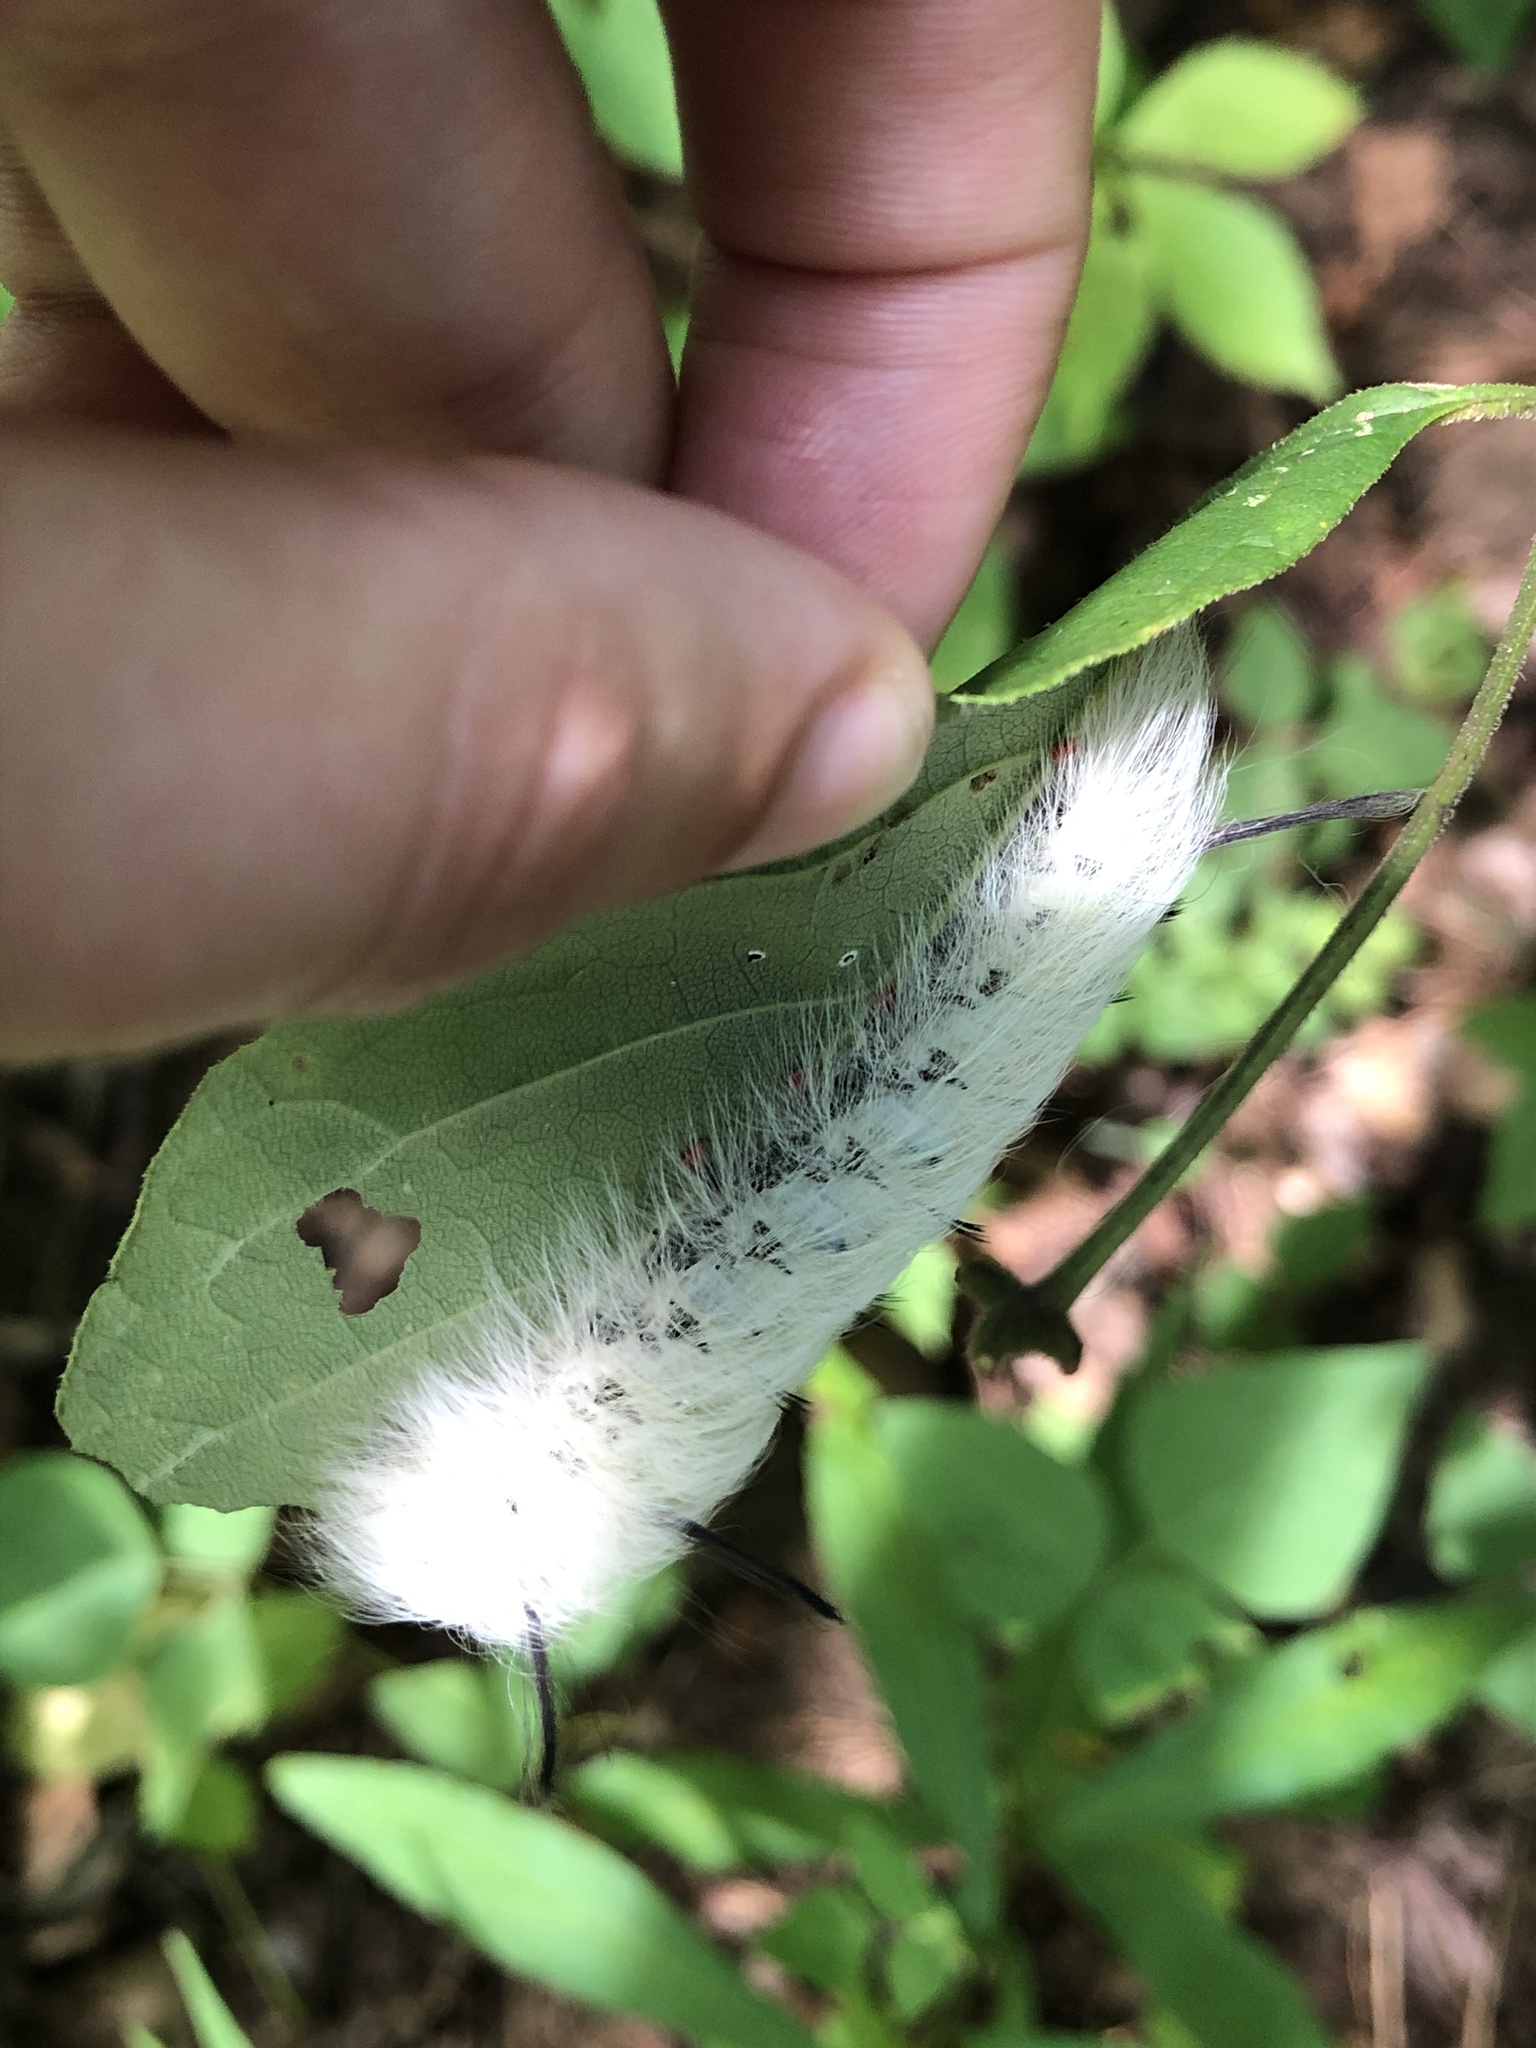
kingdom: Animalia
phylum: Arthropoda
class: Insecta
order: Lepidoptera
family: Apatelodidae
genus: Hygrochroa
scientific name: Hygrochroa Apatelodes torrefacta
